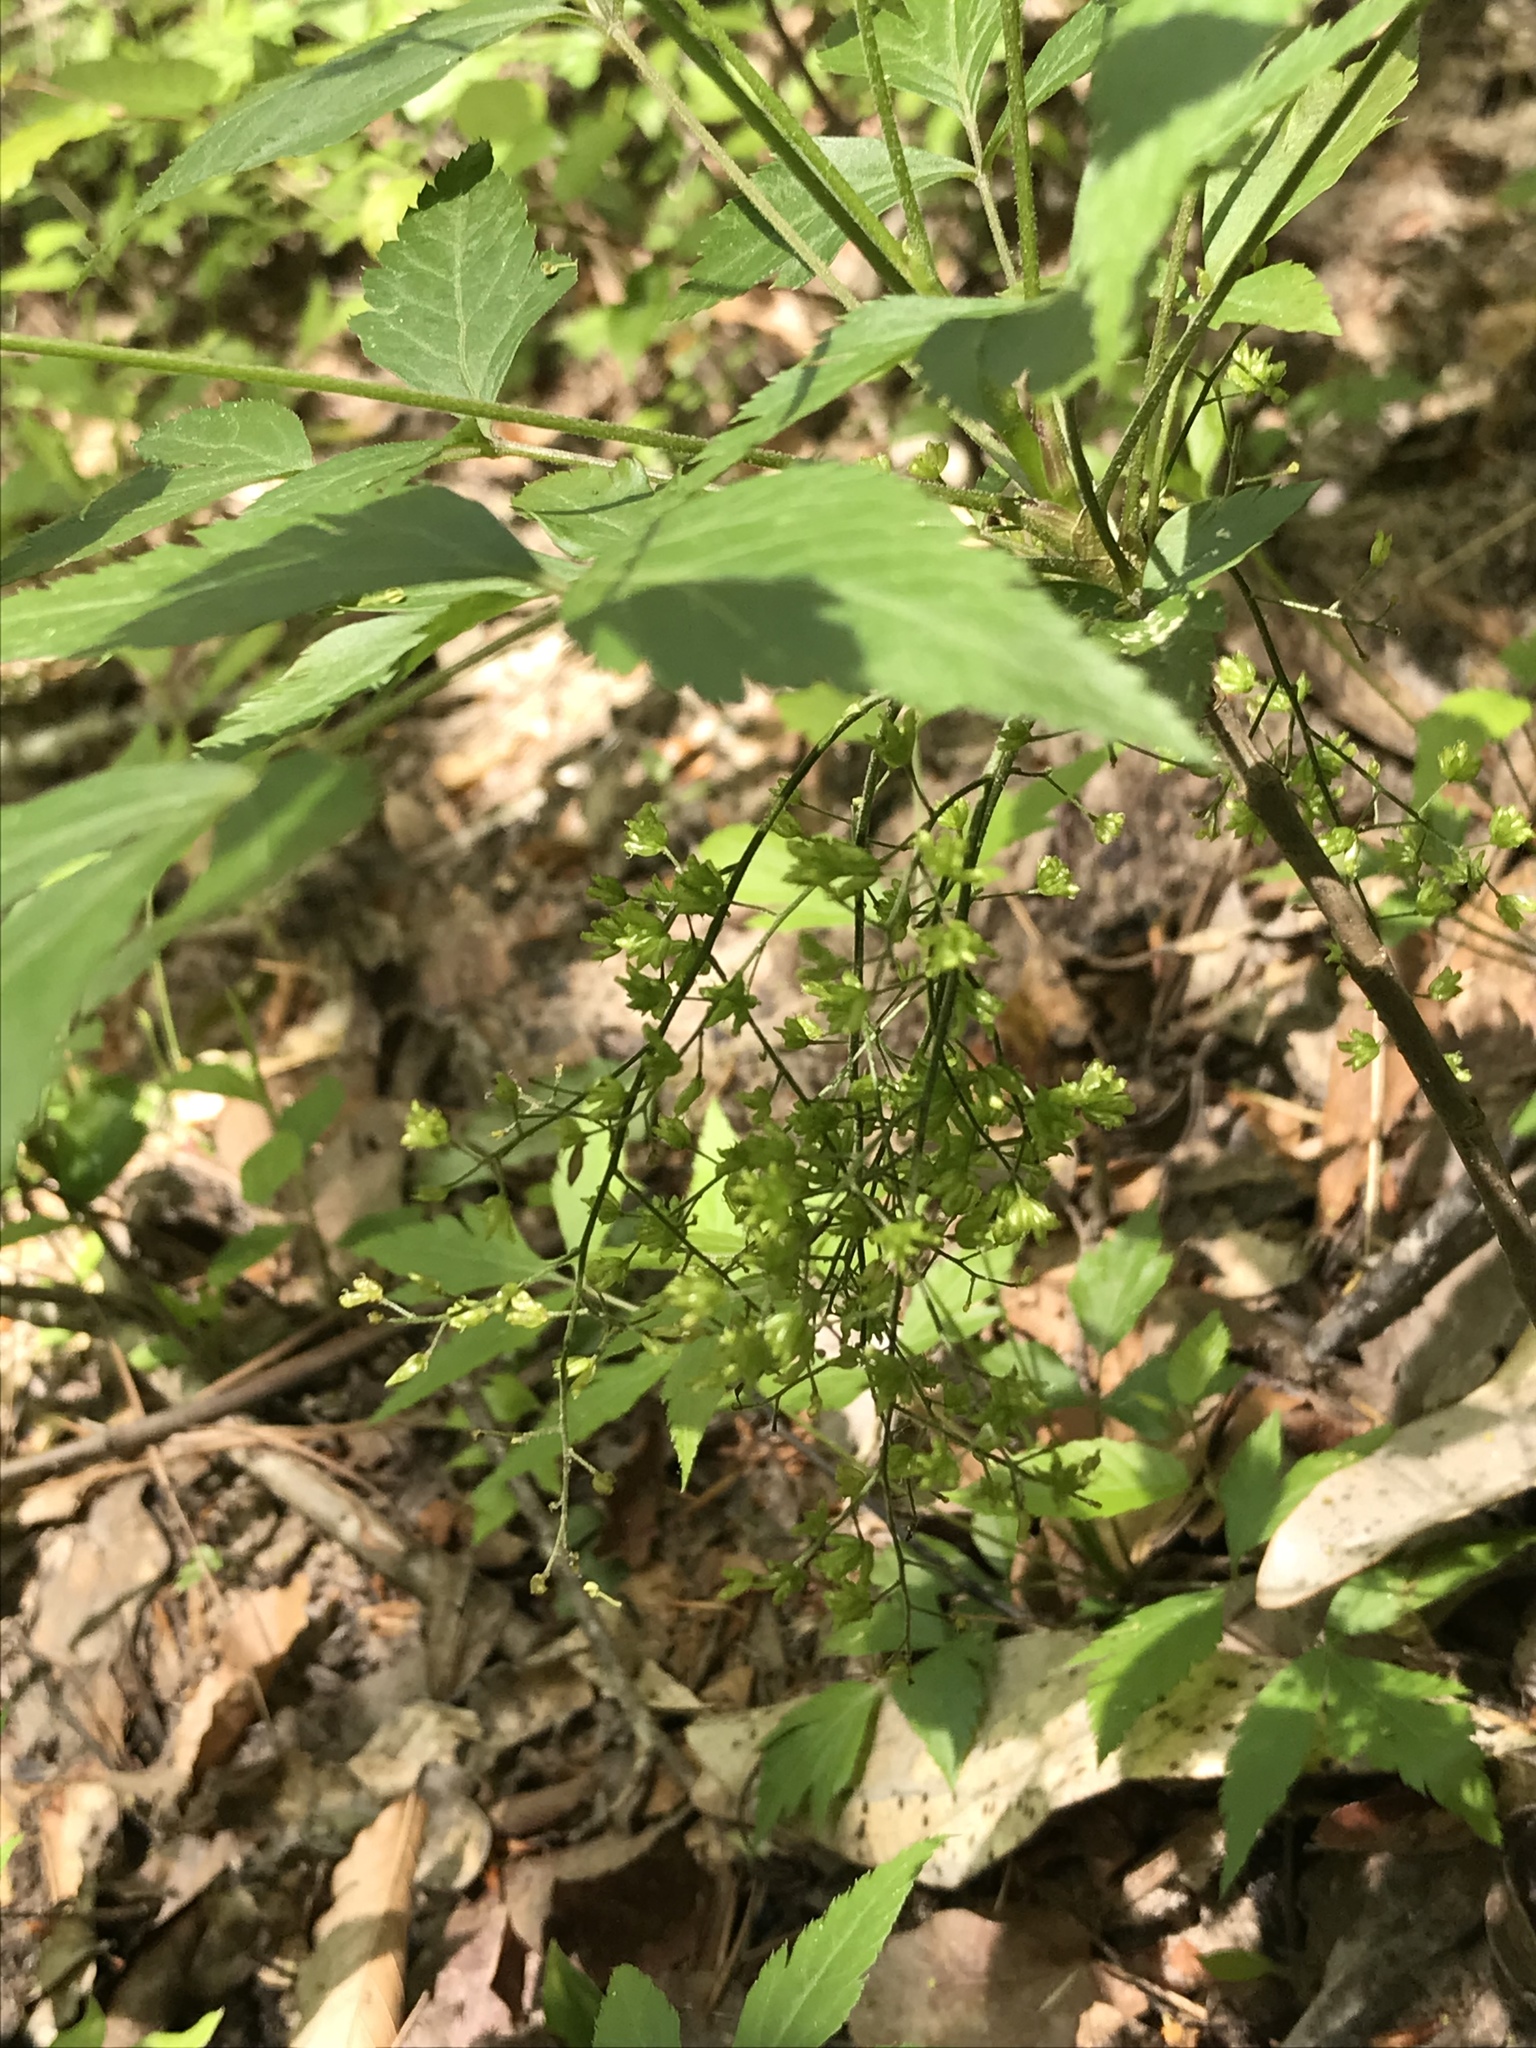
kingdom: Plantae
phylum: Tracheophyta
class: Magnoliopsida
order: Ranunculales
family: Ranunculaceae
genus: Xanthorhiza
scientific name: Xanthorhiza simplicissima
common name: Yellowroot
